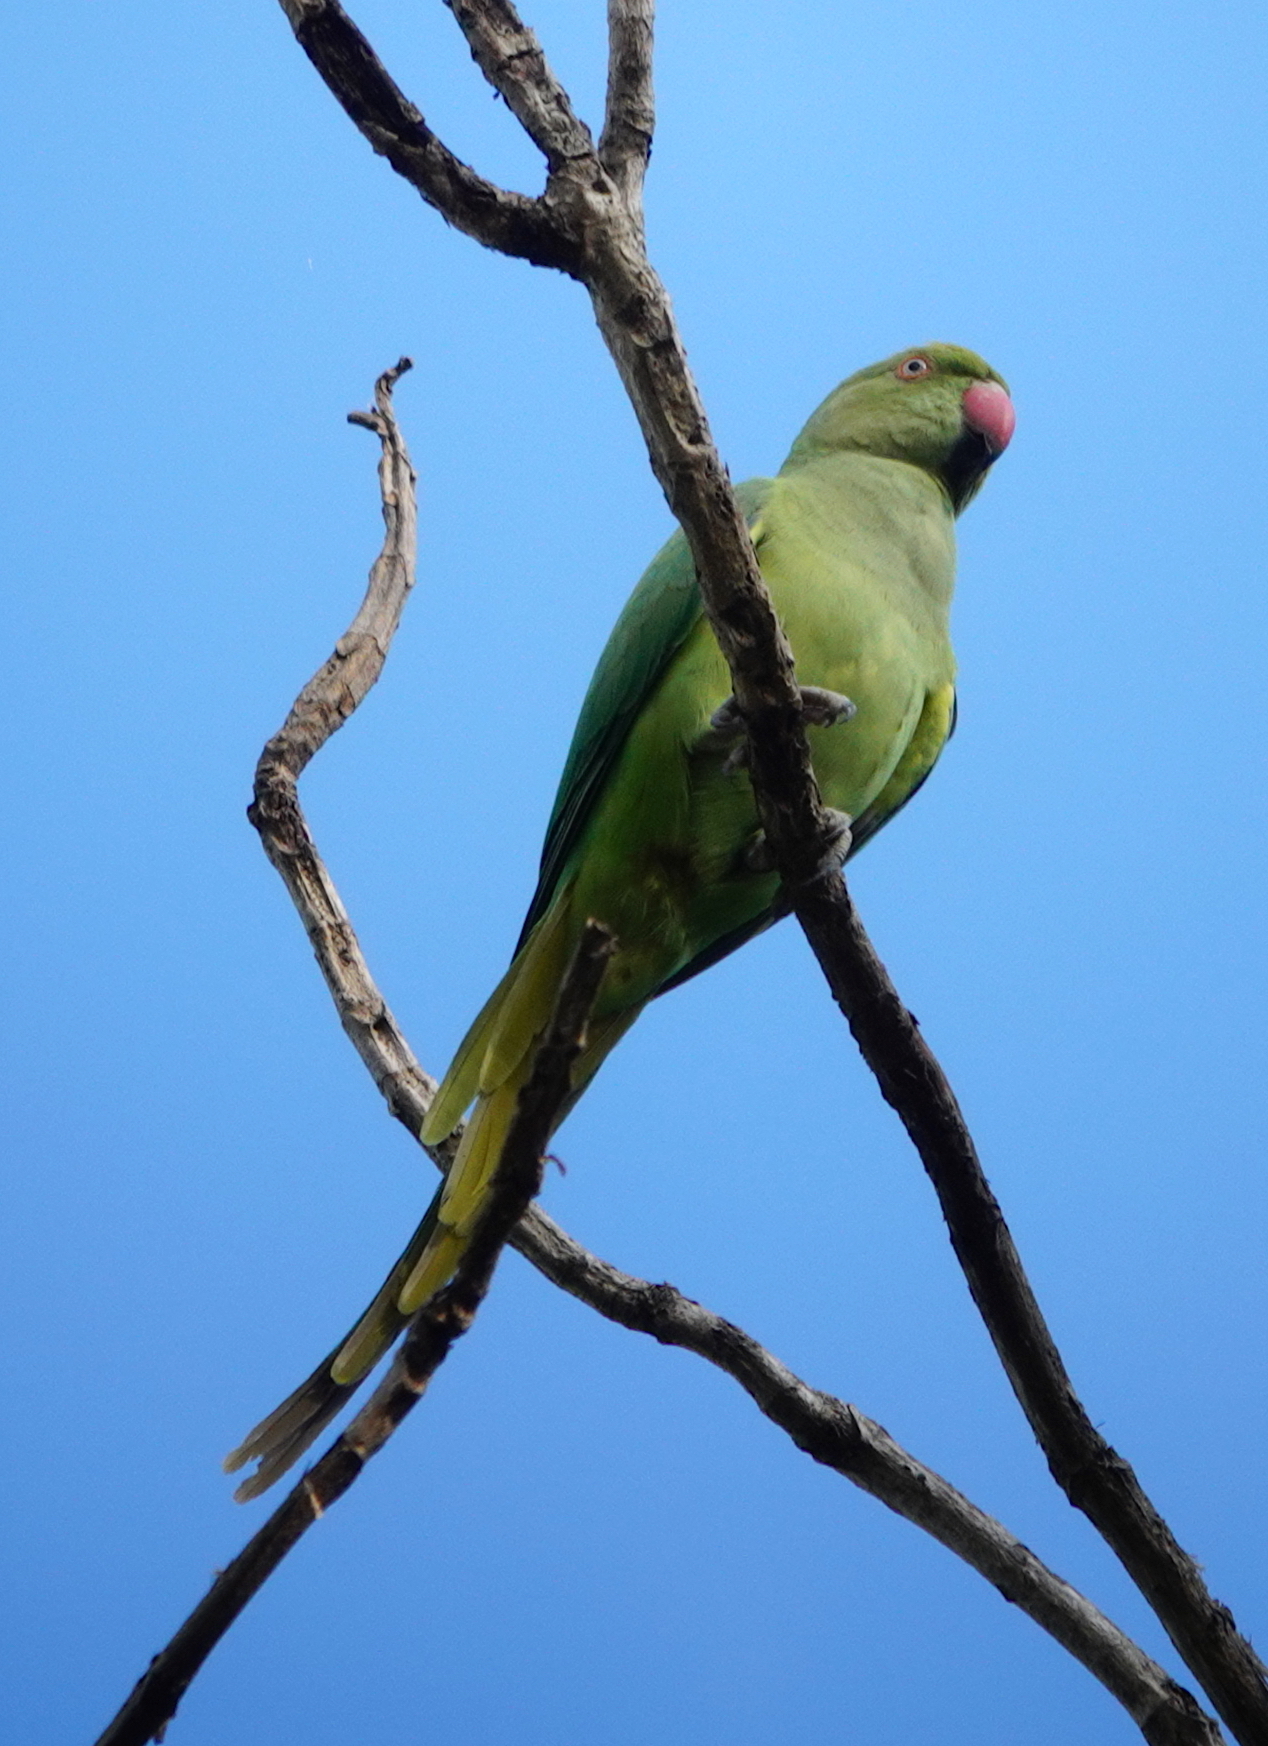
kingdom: Animalia
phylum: Chordata
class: Aves
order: Psittaciformes
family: Psittacidae
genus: Psittacula
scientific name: Psittacula krameri
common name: Rose-ringed parakeet
